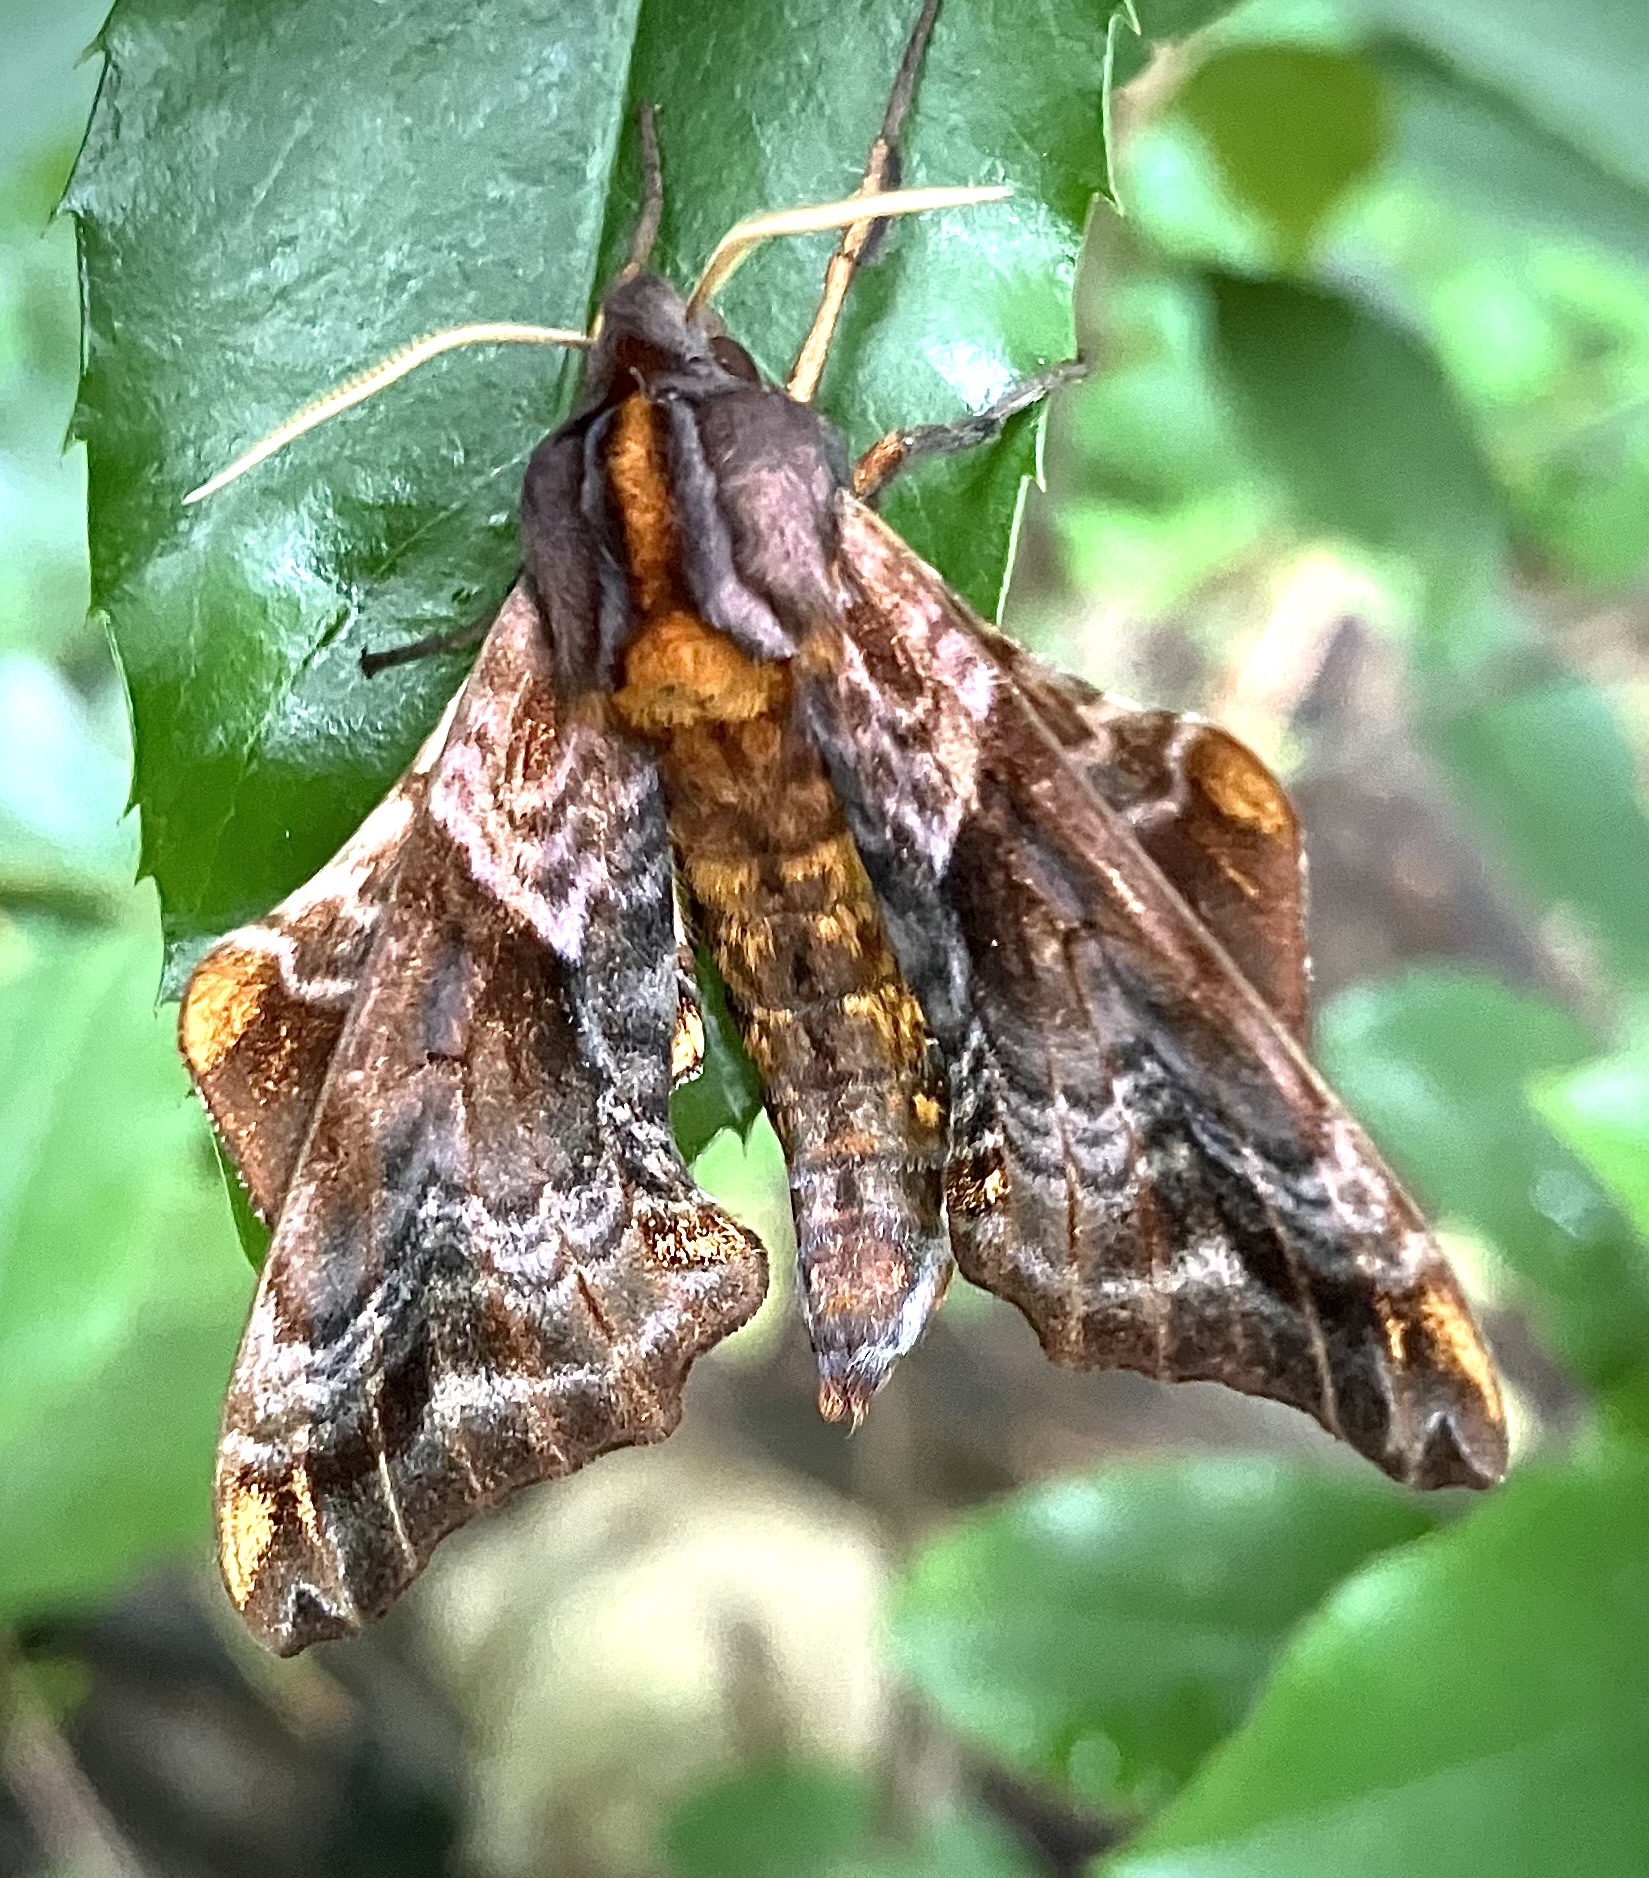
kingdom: Animalia
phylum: Arthropoda
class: Insecta
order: Lepidoptera
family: Sphingidae
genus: Paonias
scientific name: Paonias myops
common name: Small-eyed sphinx
